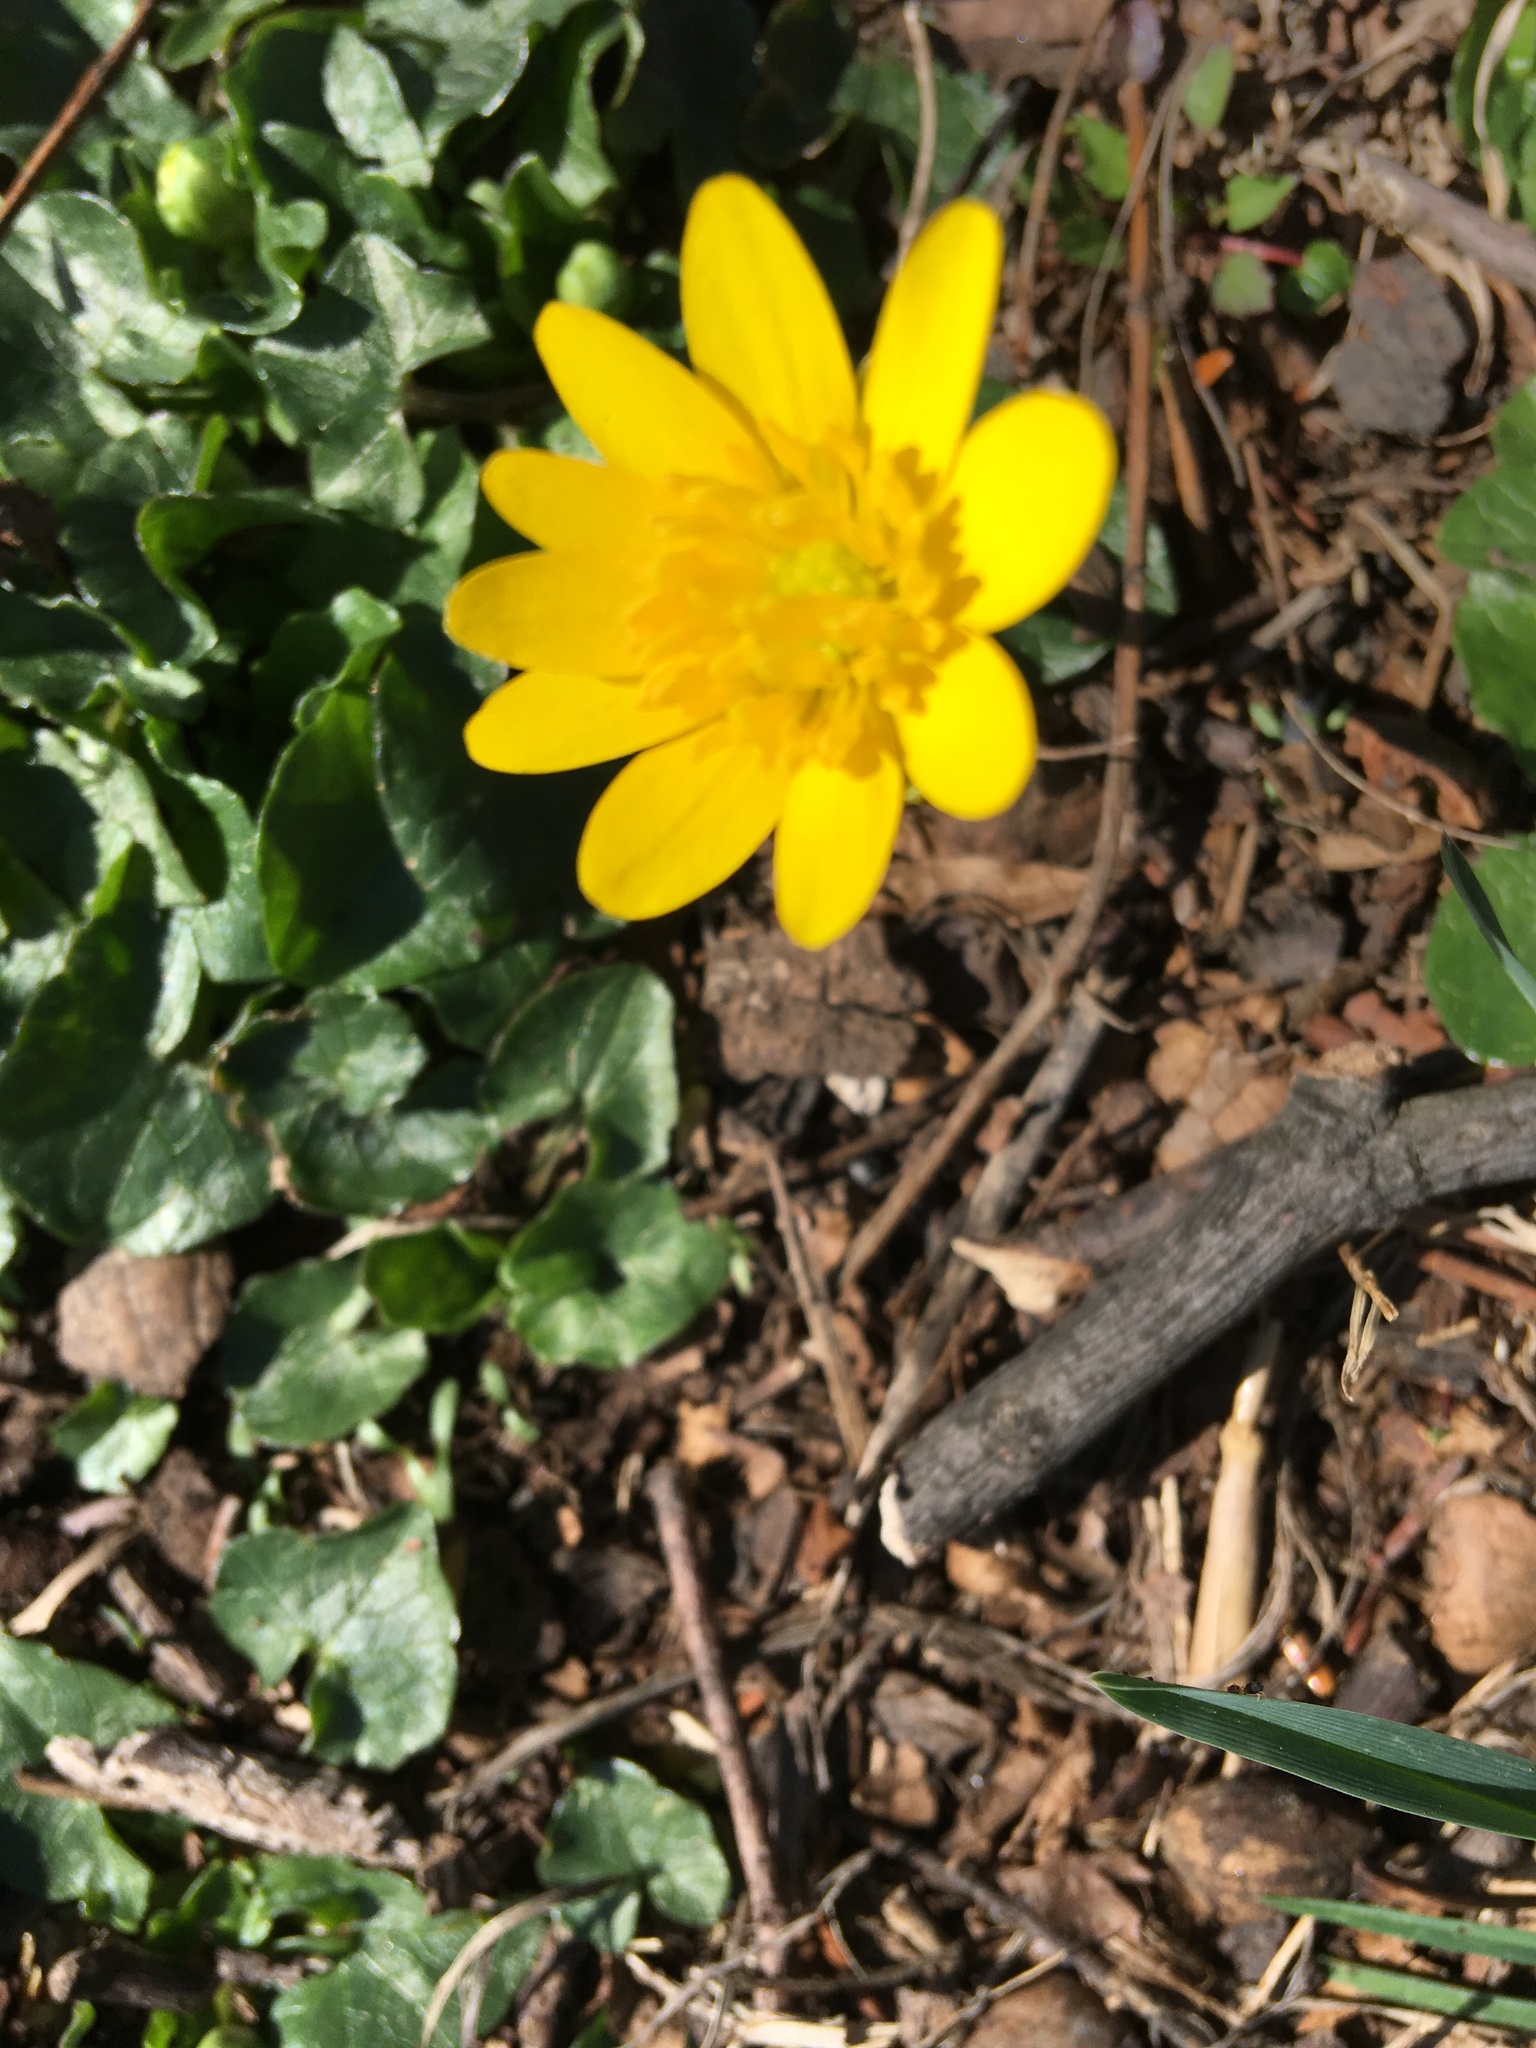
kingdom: Plantae
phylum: Tracheophyta
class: Magnoliopsida
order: Ranunculales
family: Ranunculaceae
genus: Ficaria
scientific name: Ficaria verna
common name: Lesser celandine
